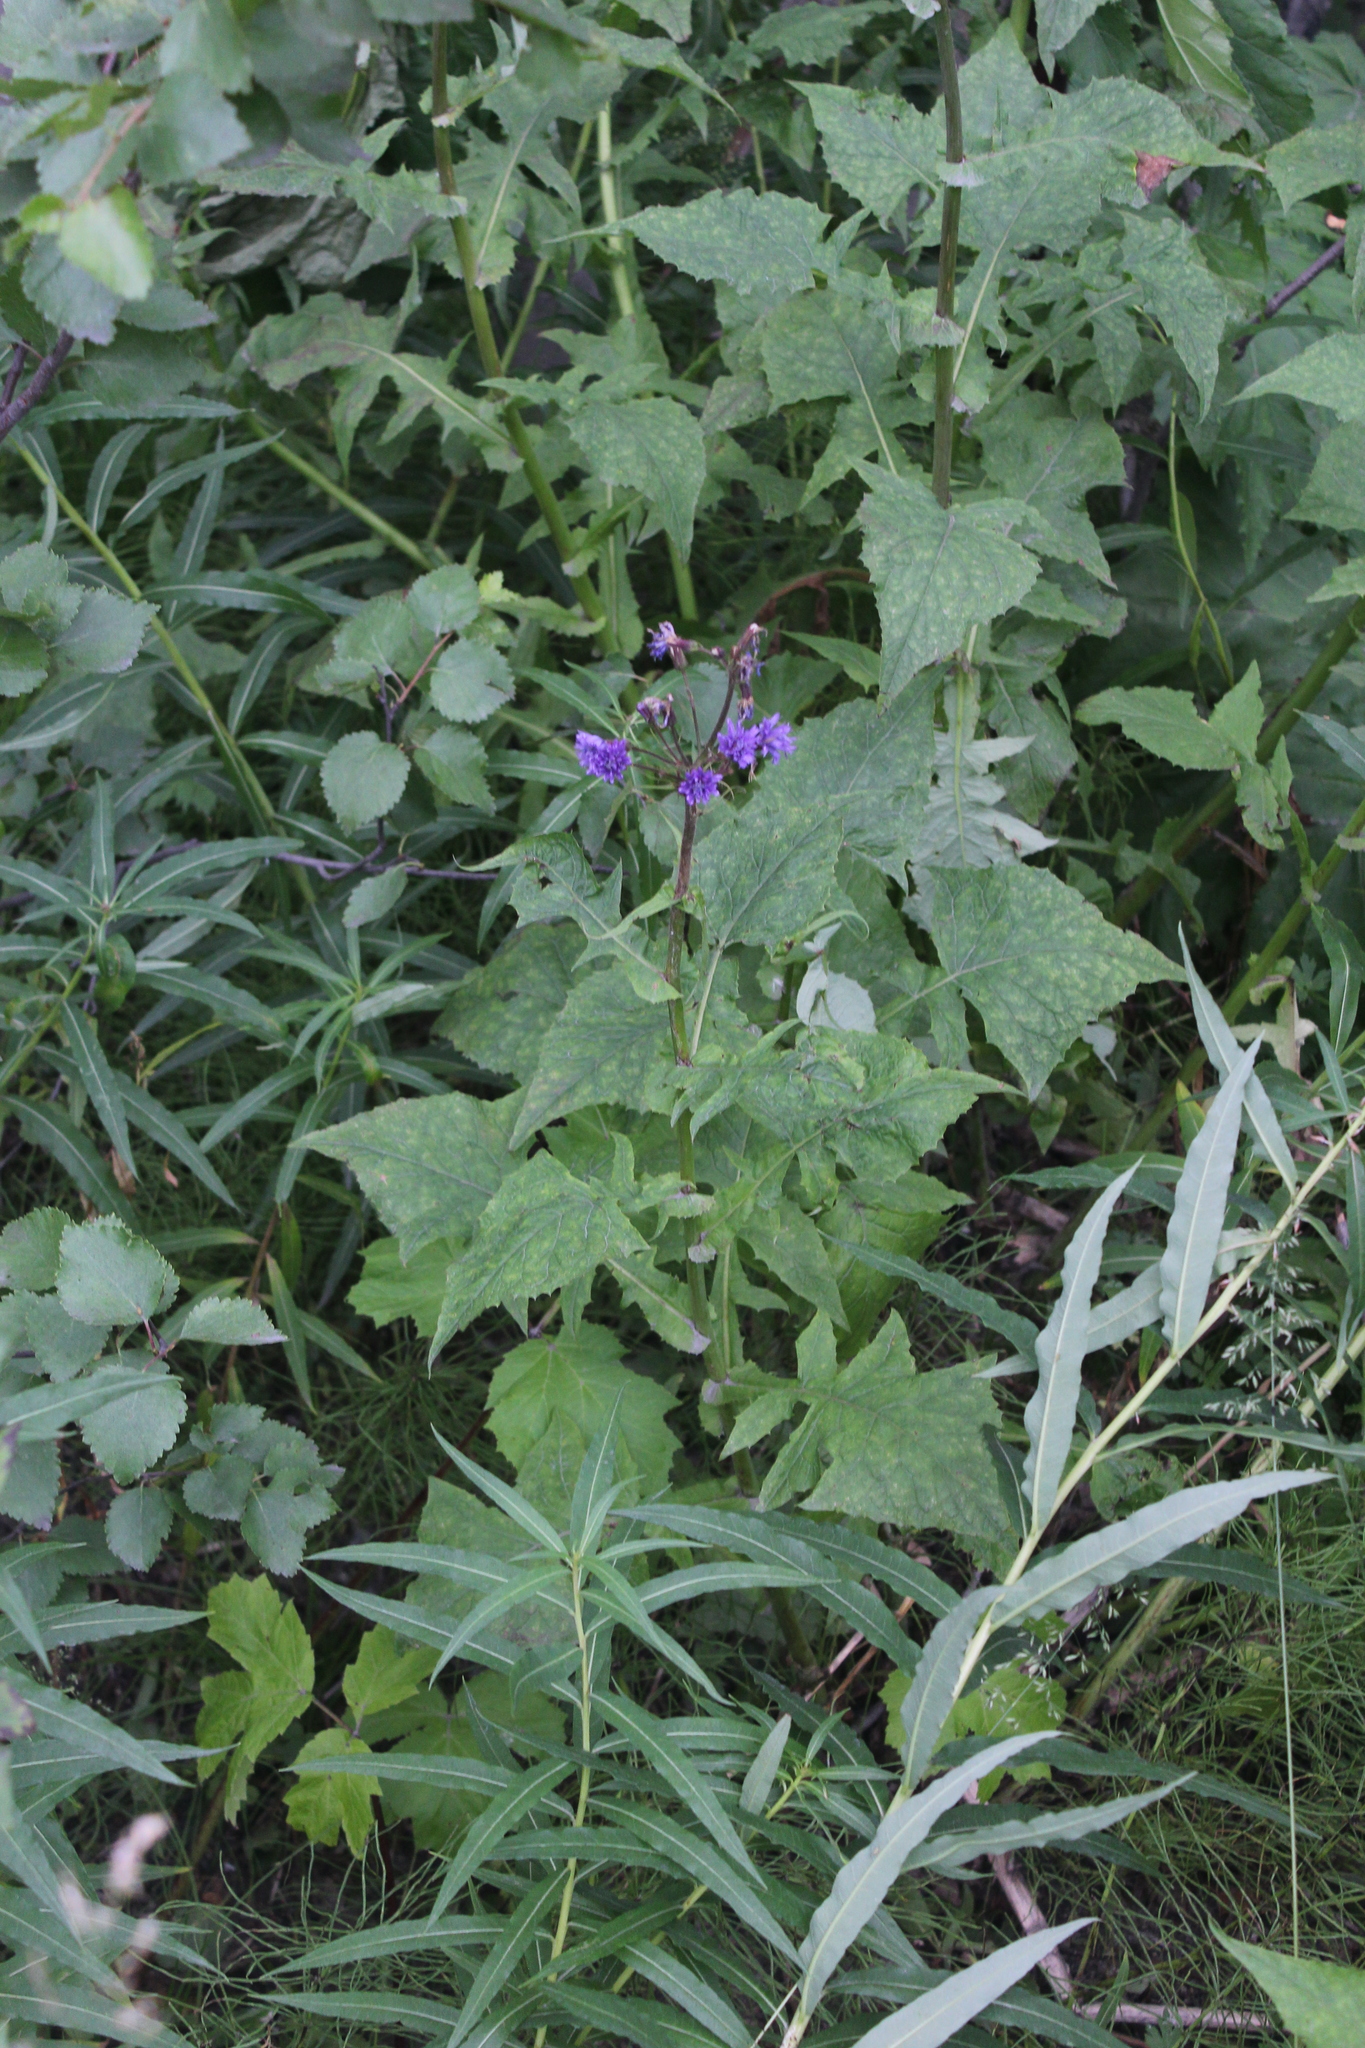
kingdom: Plantae
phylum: Tracheophyta
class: Magnoliopsida
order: Asterales
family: Asteraceae
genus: Cicerbita
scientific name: Cicerbita alpina
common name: Alpine blue-sow-thistle
